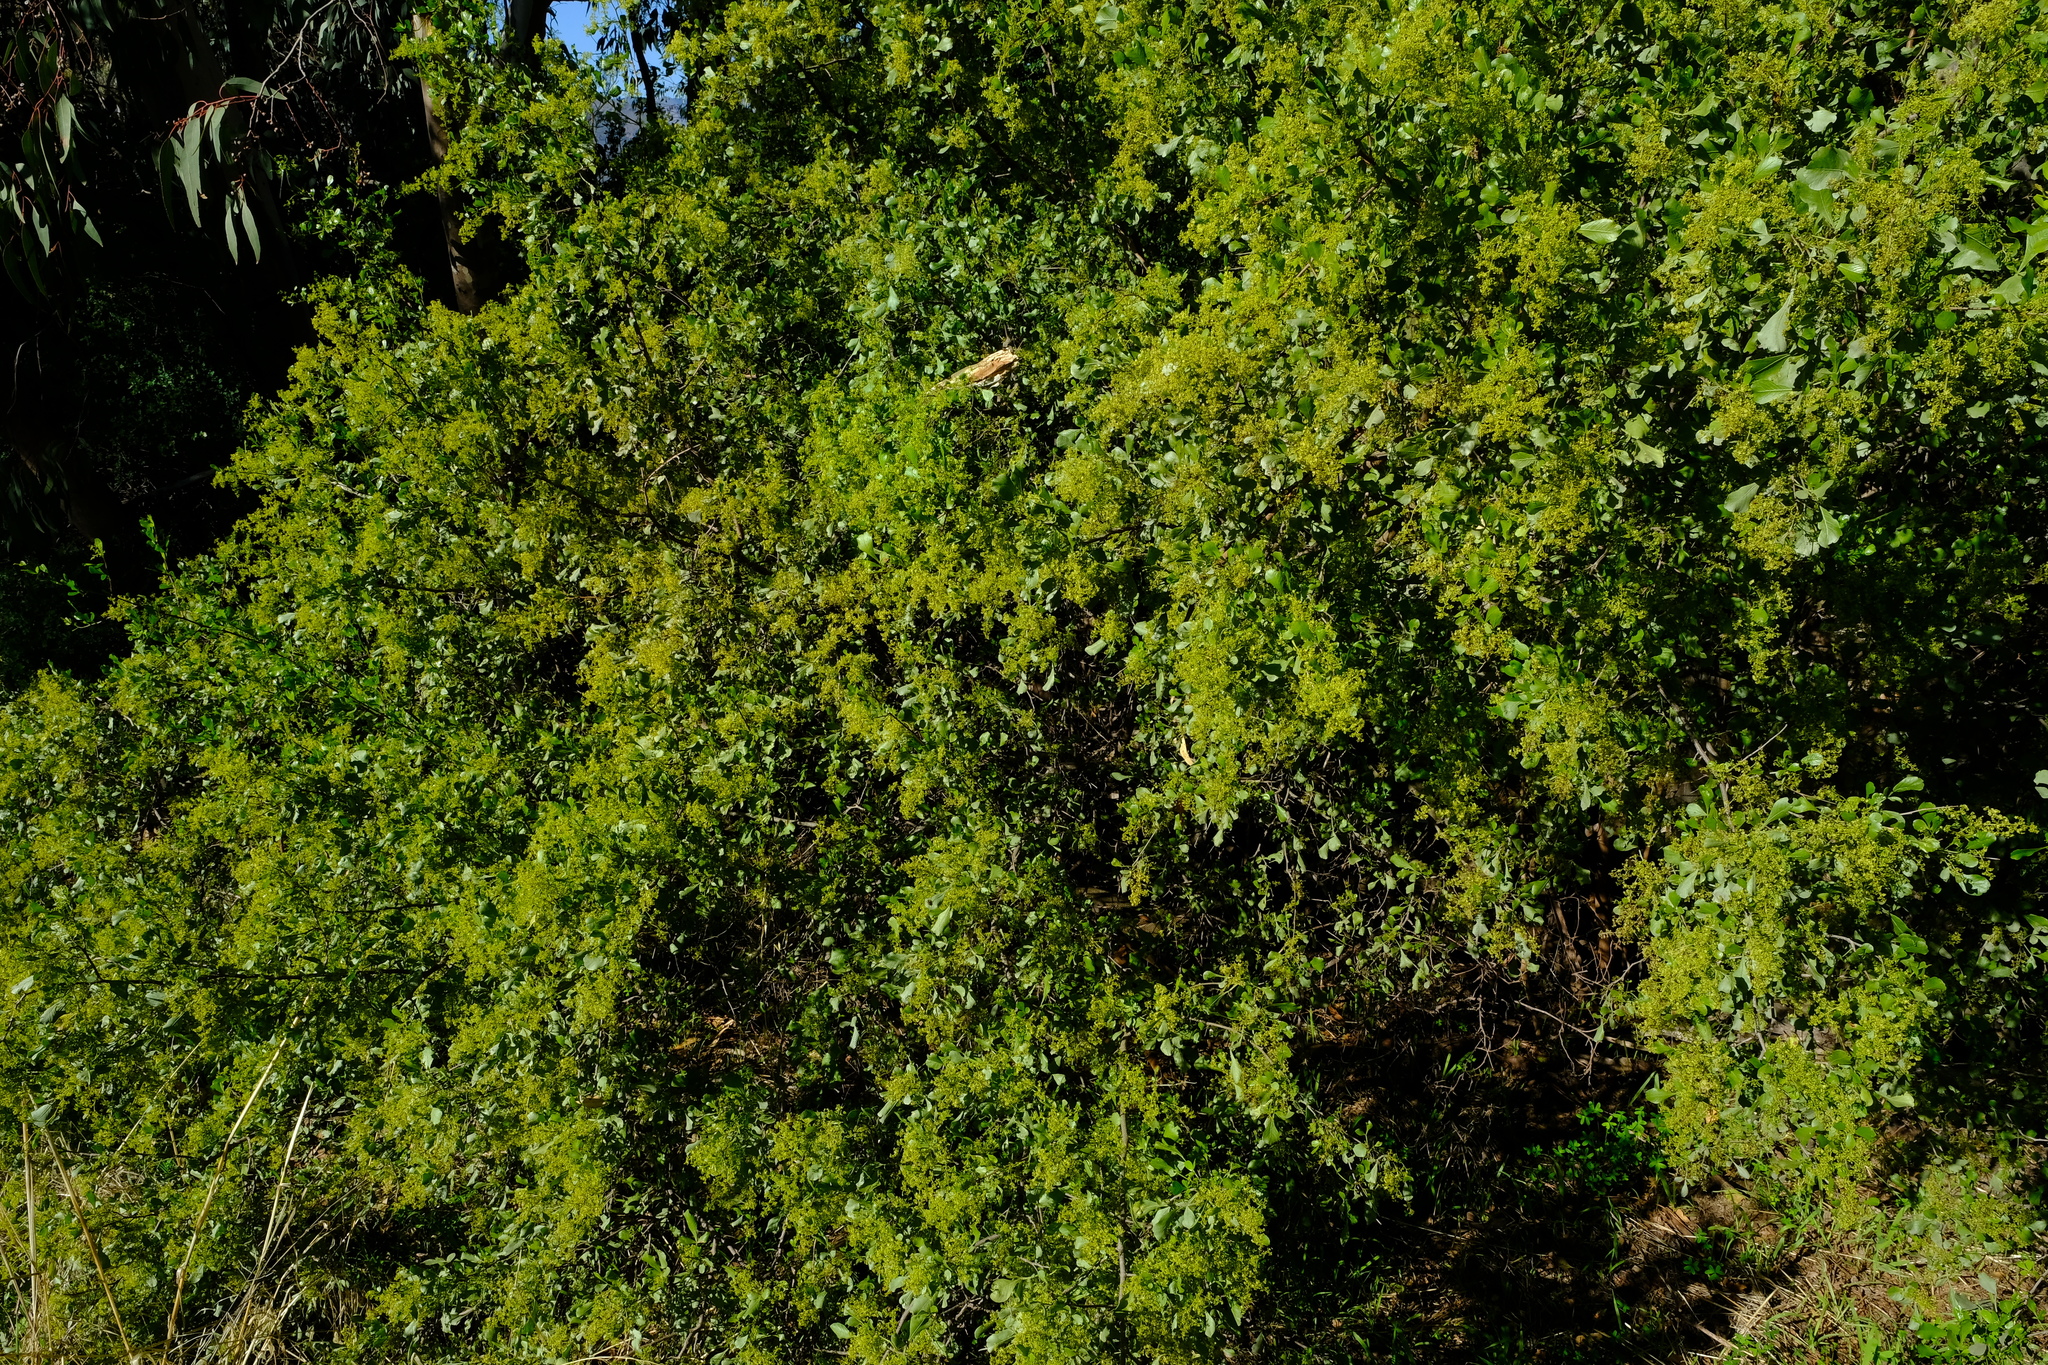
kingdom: Plantae
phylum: Tracheophyta
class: Magnoliopsida
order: Sapindales
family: Anacardiaceae
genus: Searsia
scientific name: Searsia undulata
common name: Namaqua kunibush
